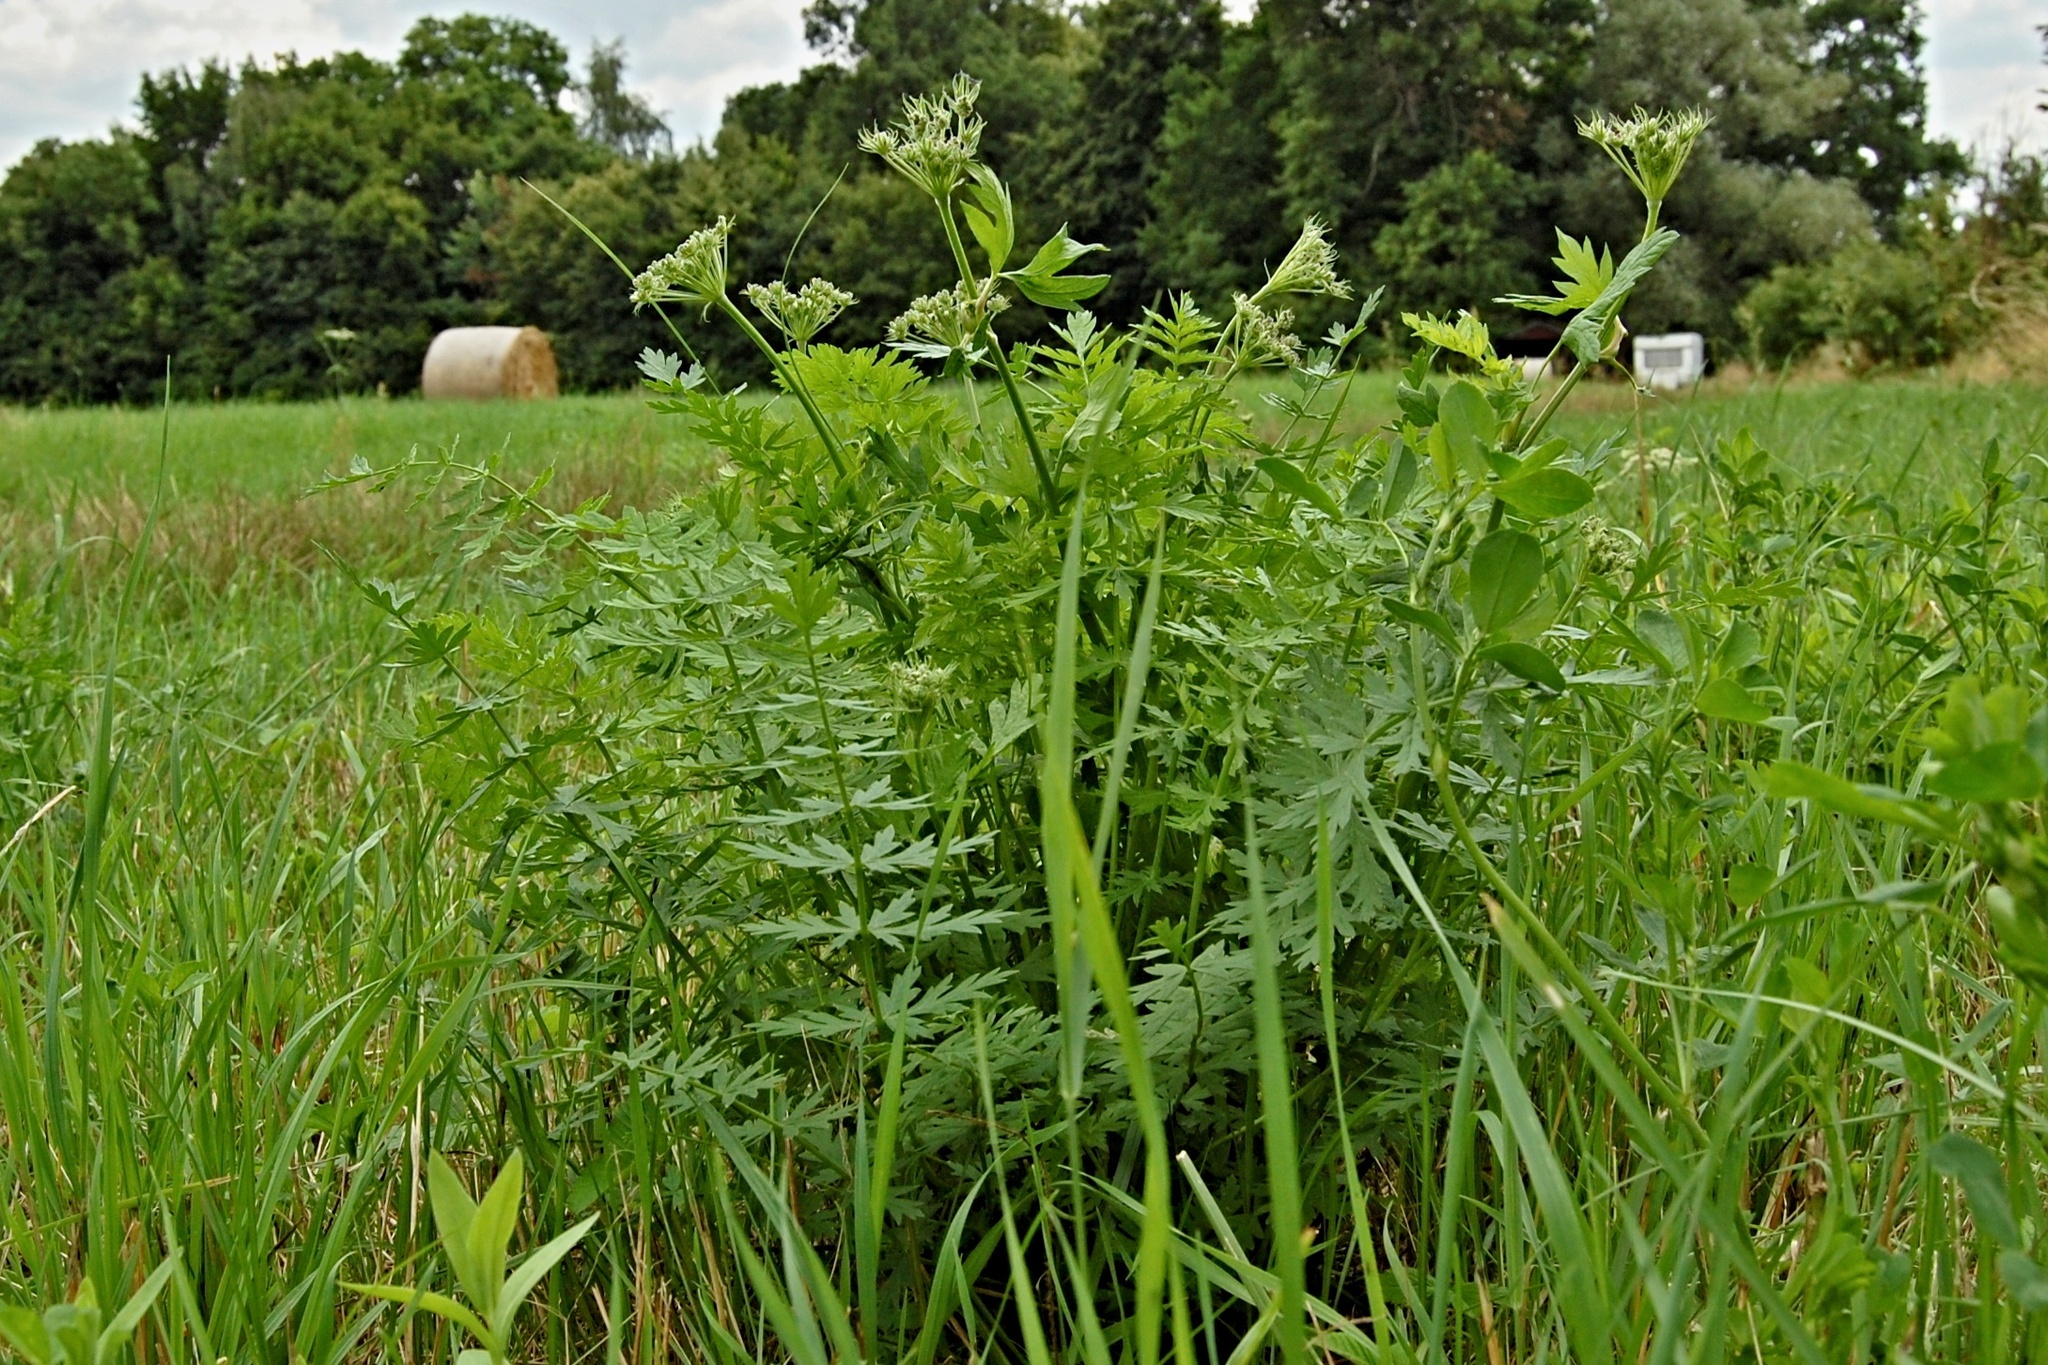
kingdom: Plantae
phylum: Tracheophyta
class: Magnoliopsida
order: Apiales
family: Apiaceae
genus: Seseli
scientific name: Seseli libanotis
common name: Mooncarrot
